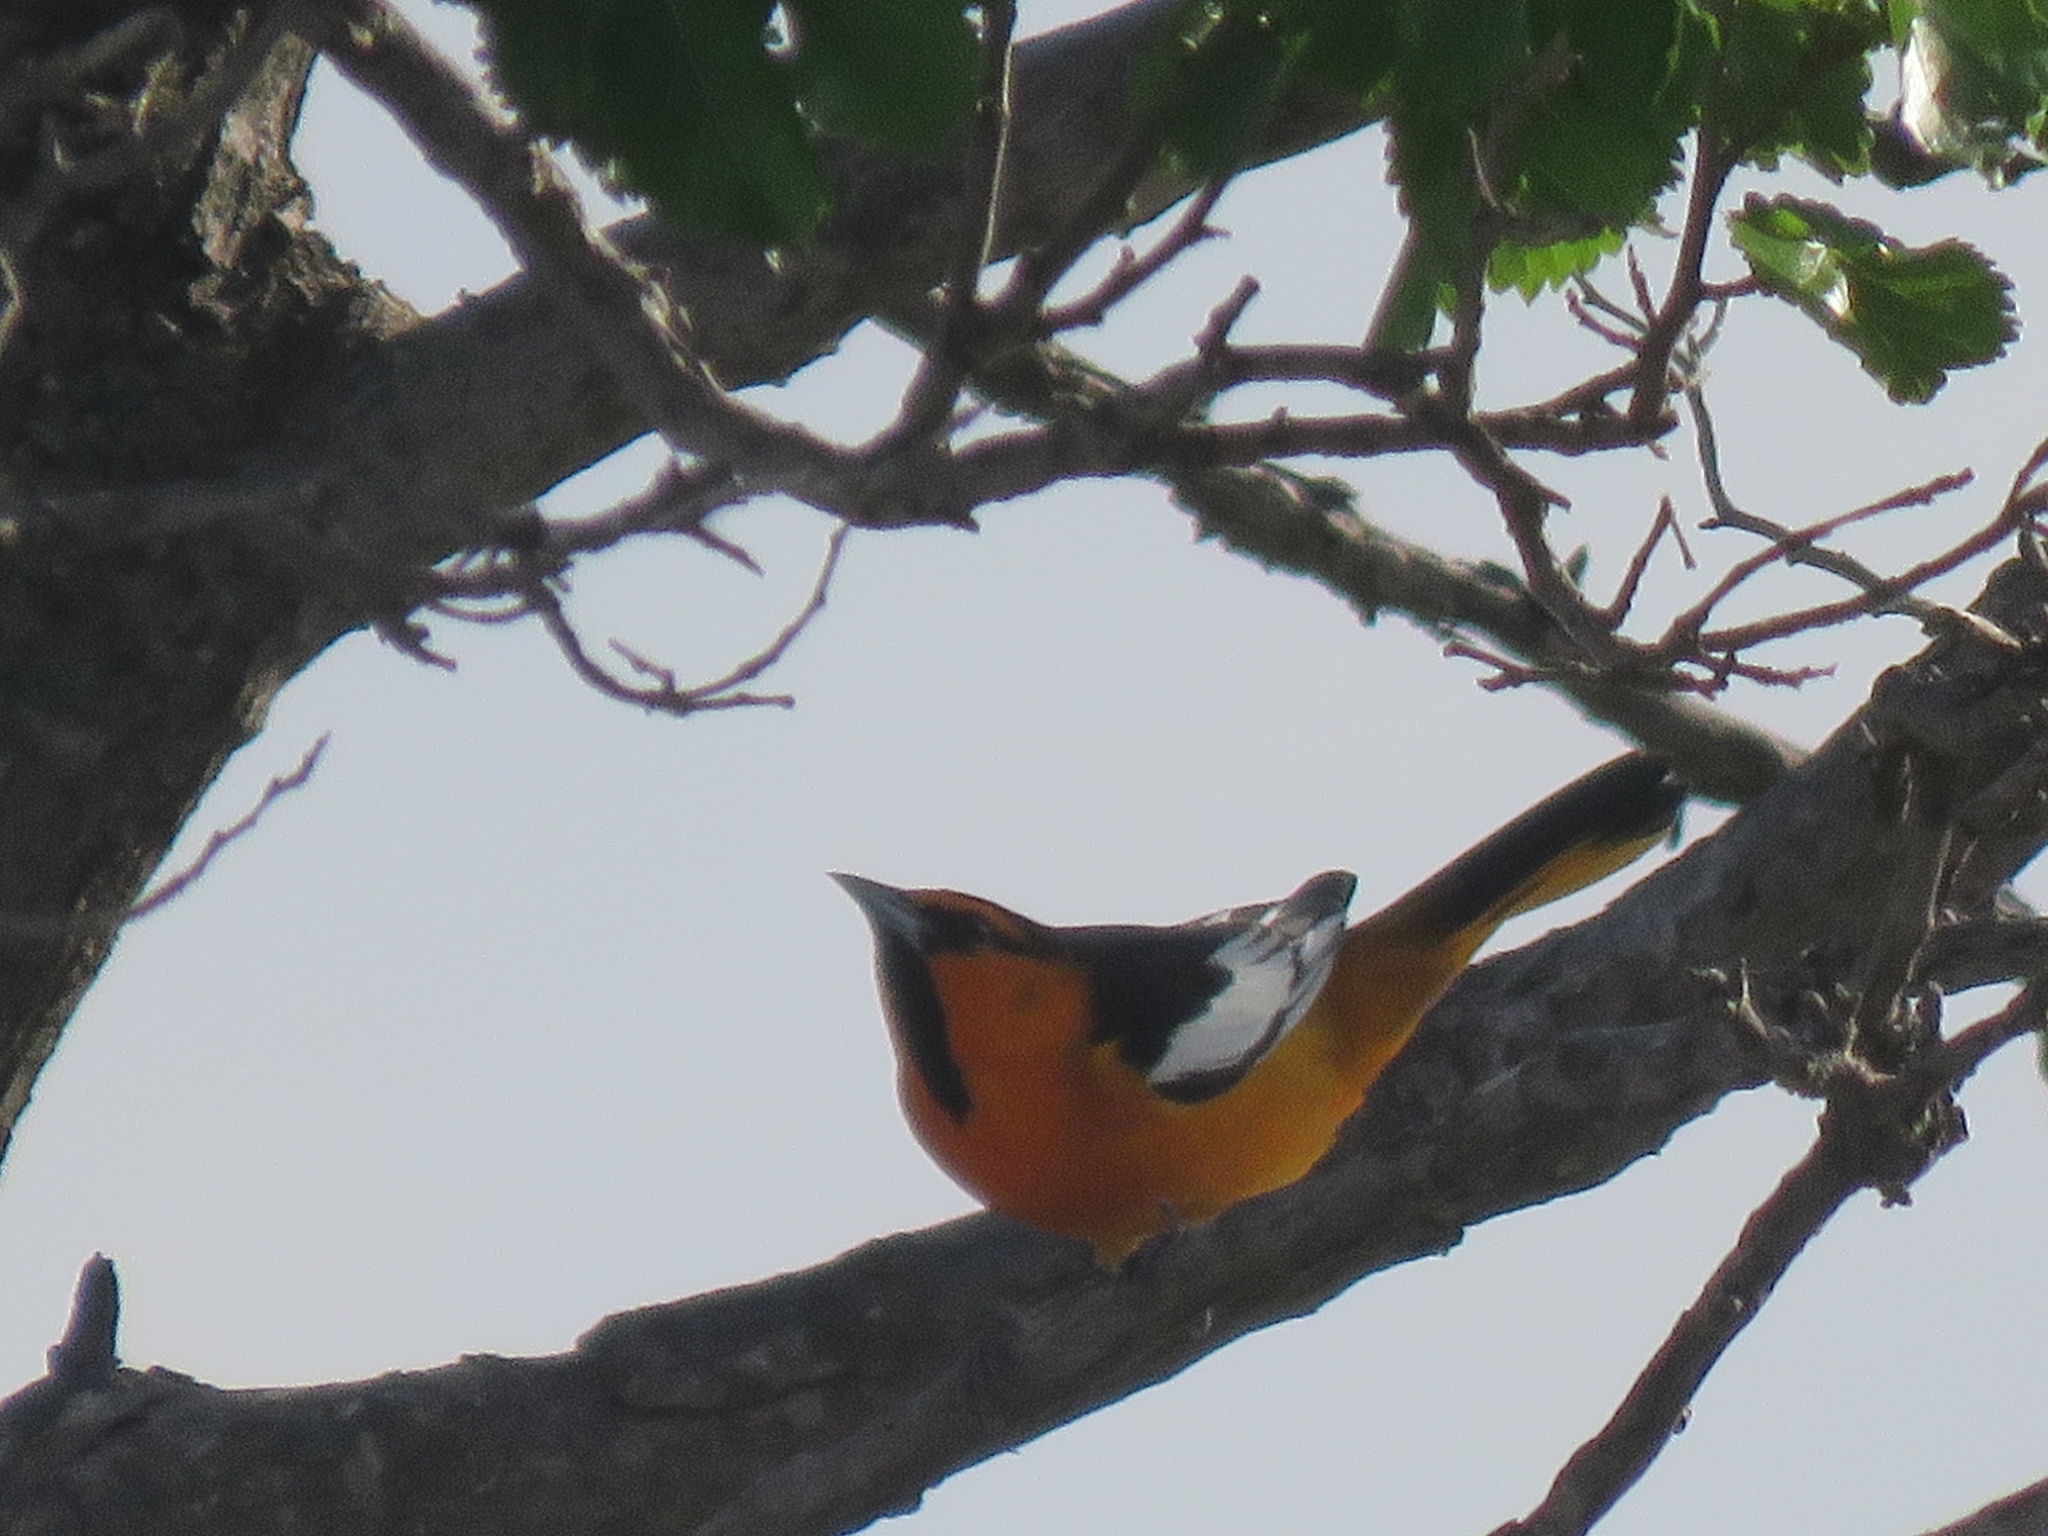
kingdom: Animalia
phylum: Chordata
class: Aves
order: Passeriformes
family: Icteridae
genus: Icterus
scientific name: Icterus bullockii
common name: Bullock's oriole
